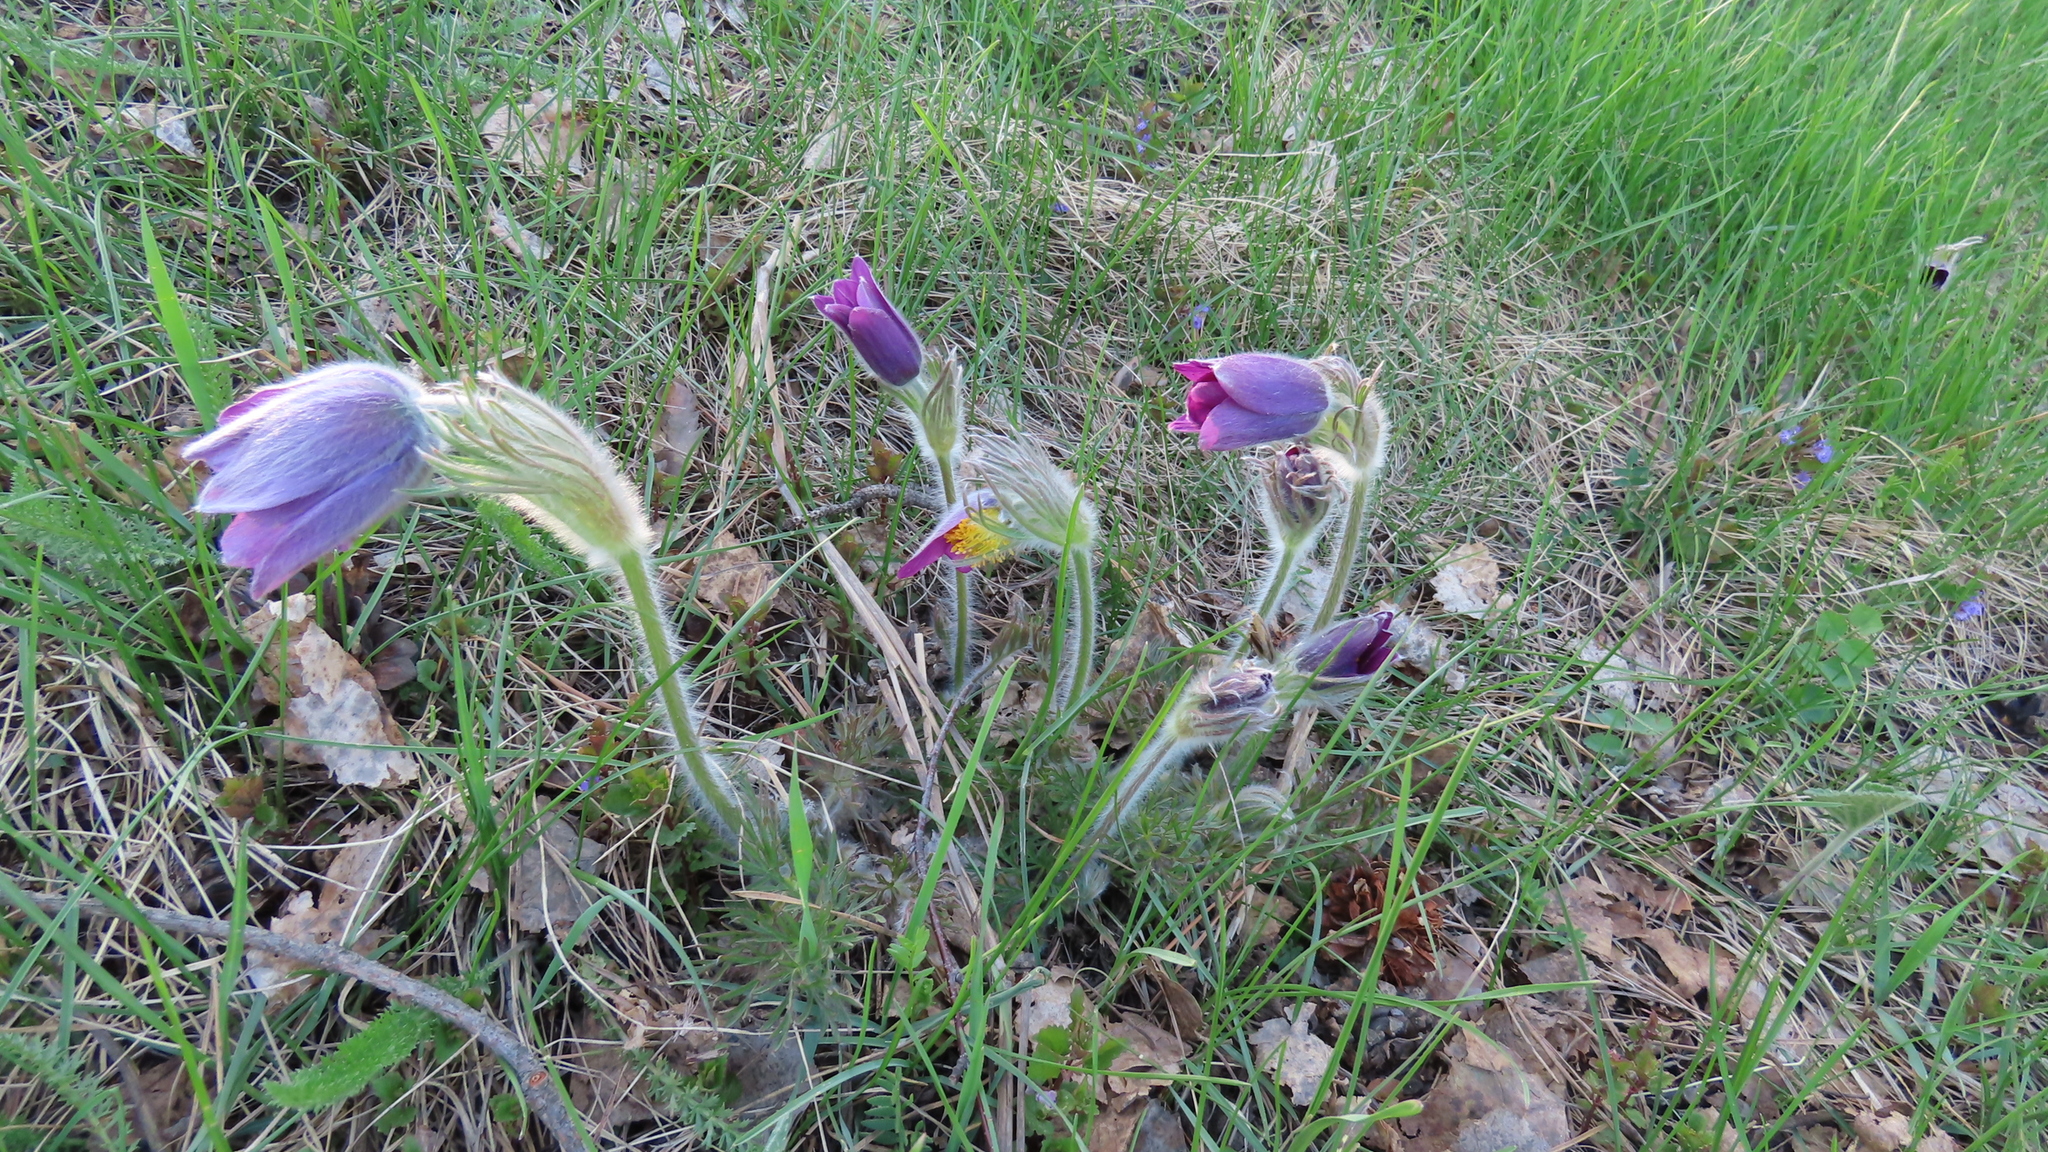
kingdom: Plantae
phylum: Tracheophyta
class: Magnoliopsida
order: Ranunculales
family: Ranunculaceae
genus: Pulsatilla
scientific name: Pulsatilla turczaninovii
